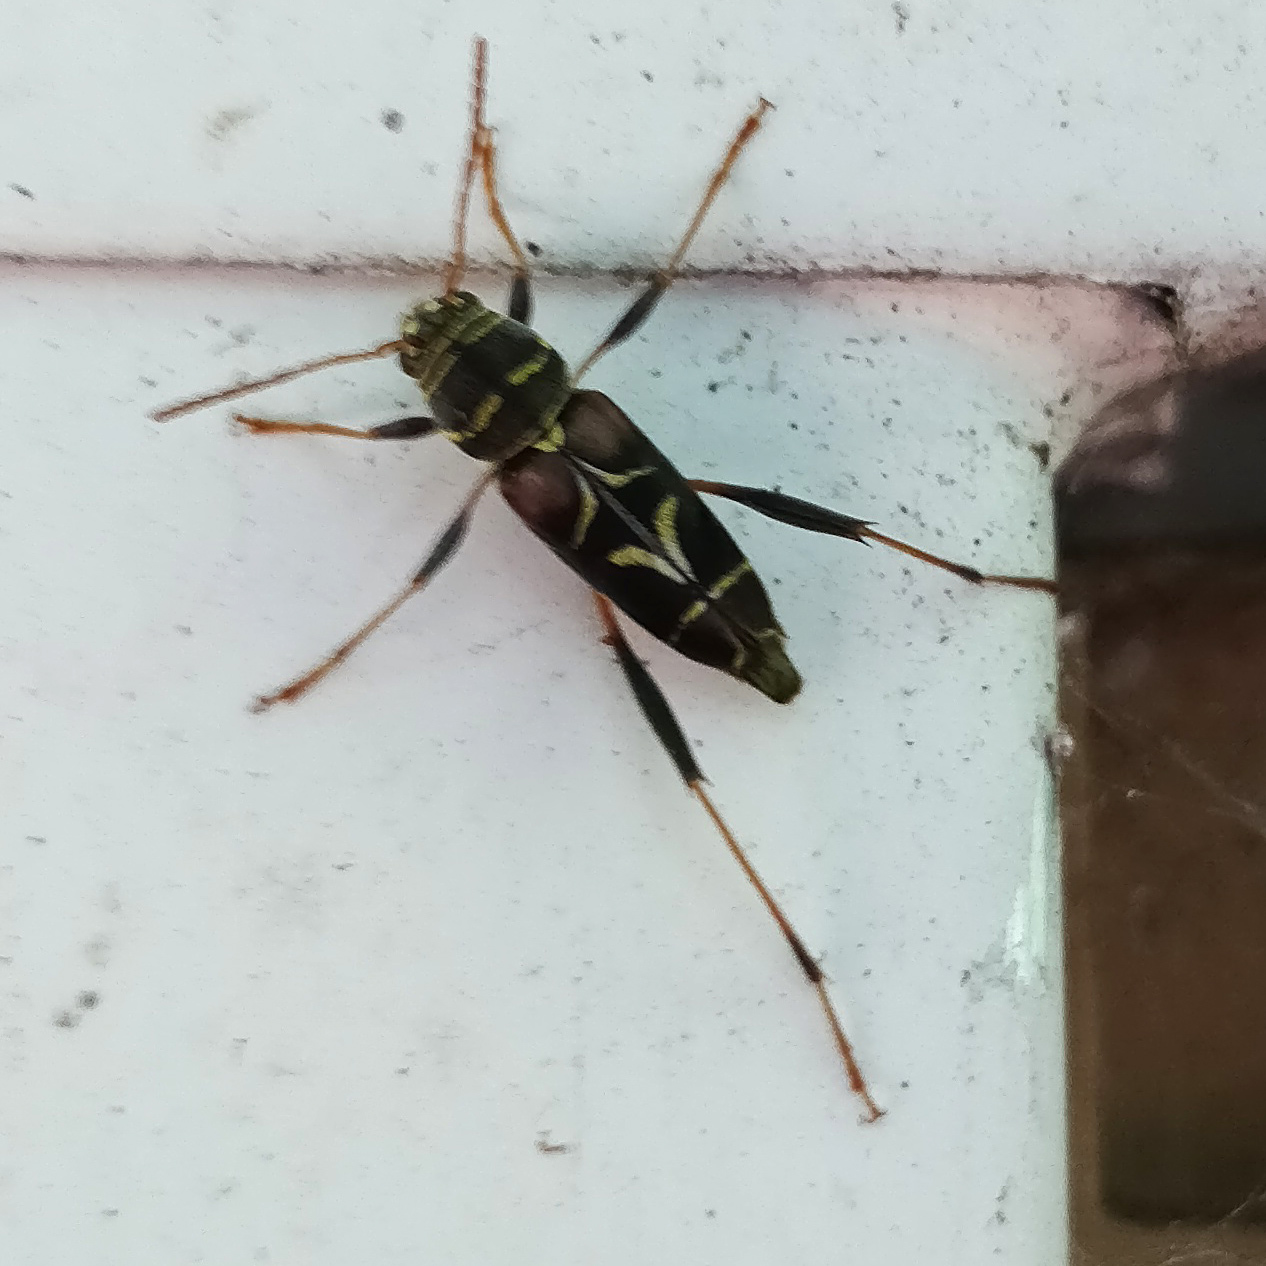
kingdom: Animalia
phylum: Arthropoda
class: Insecta
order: Coleoptera
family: Cerambycidae
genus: Neoclytus
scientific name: Neoclytus scutellaris
